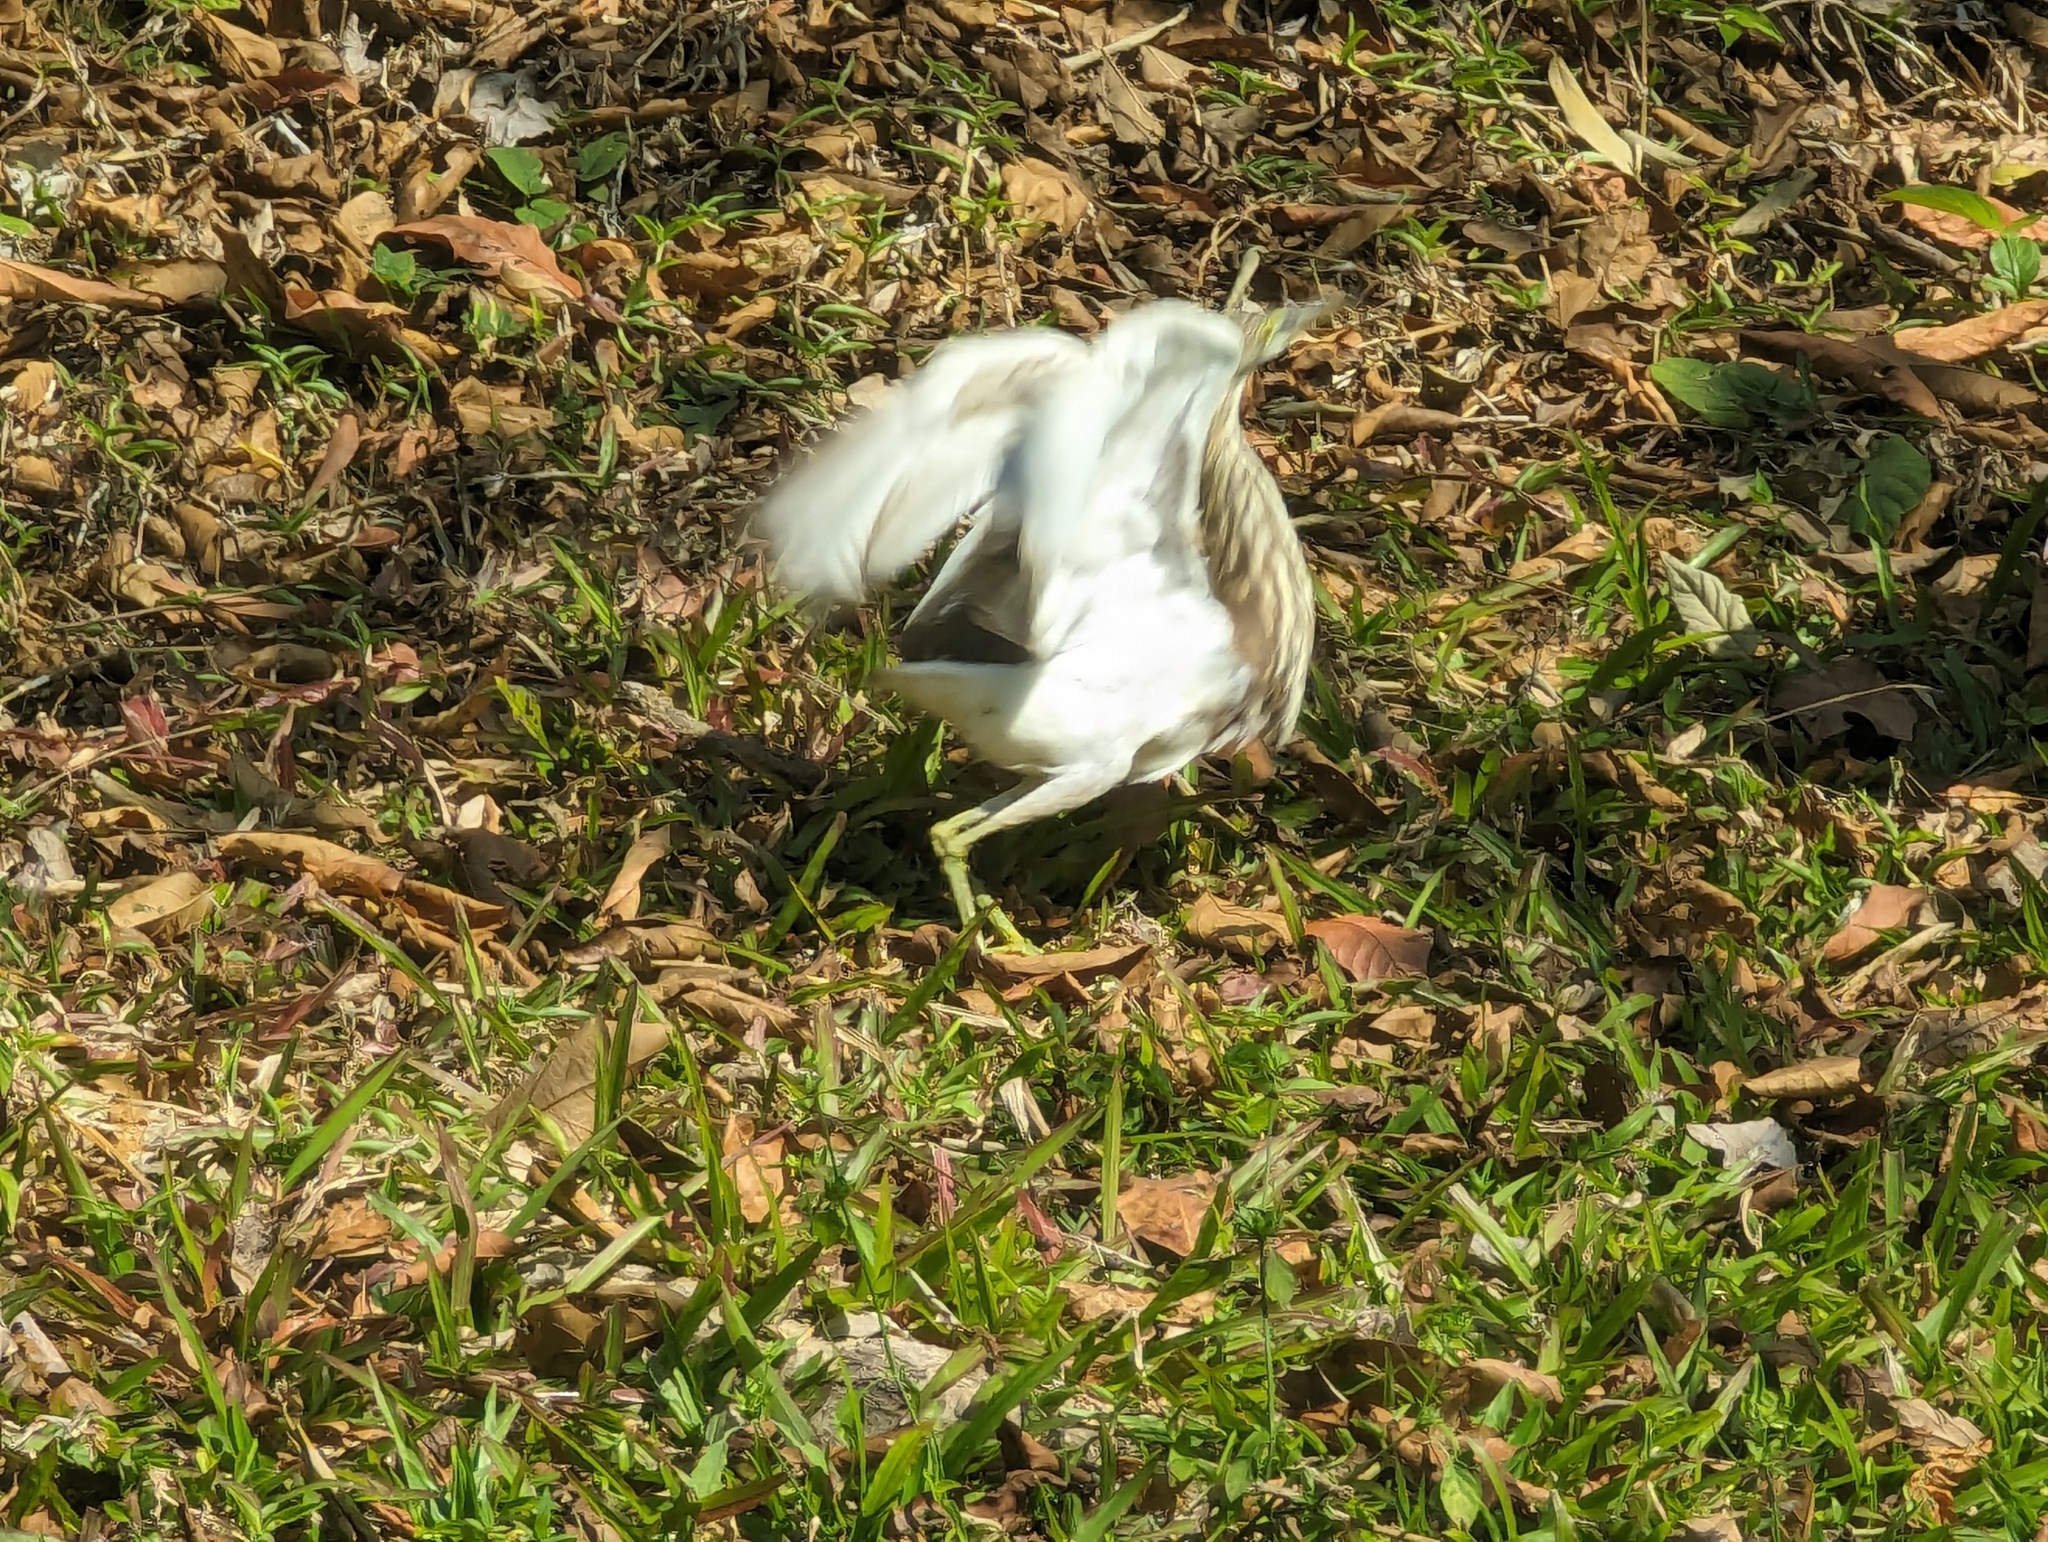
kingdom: Animalia
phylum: Chordata
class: Aves
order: Pelecaniformes
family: Ardeidae
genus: Ardeola
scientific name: Ardeola
